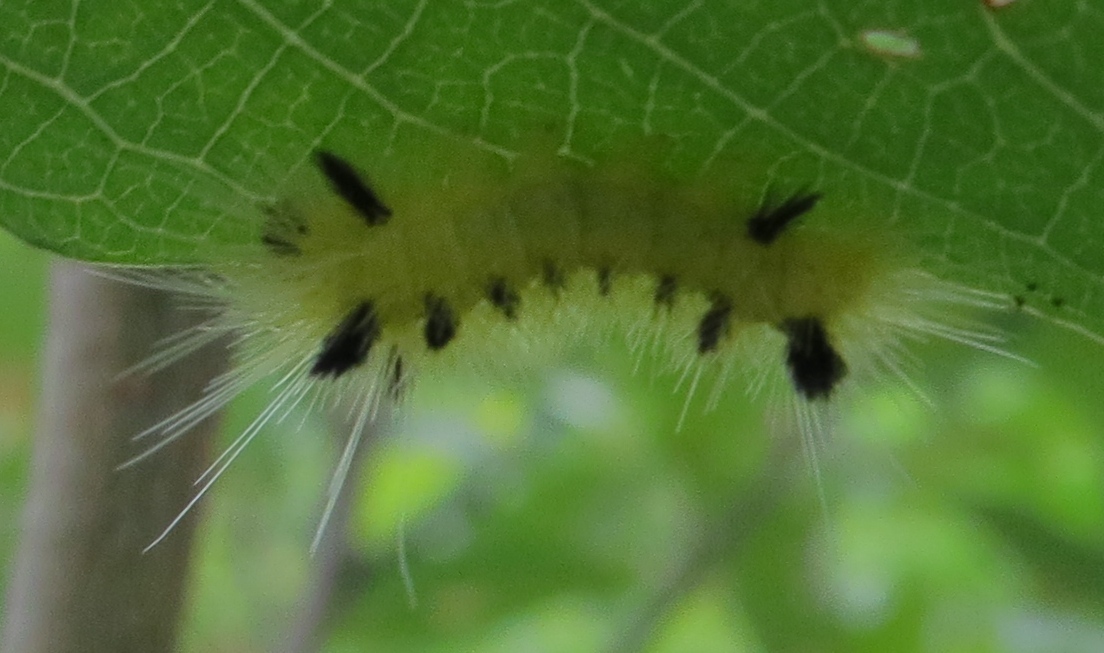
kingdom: Animalia
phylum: Arthropoda
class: Insecta
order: Lepidoptera
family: Erebidae
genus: Lophocampa
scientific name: Lophocampa maculata
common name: Spotted tussock moth
